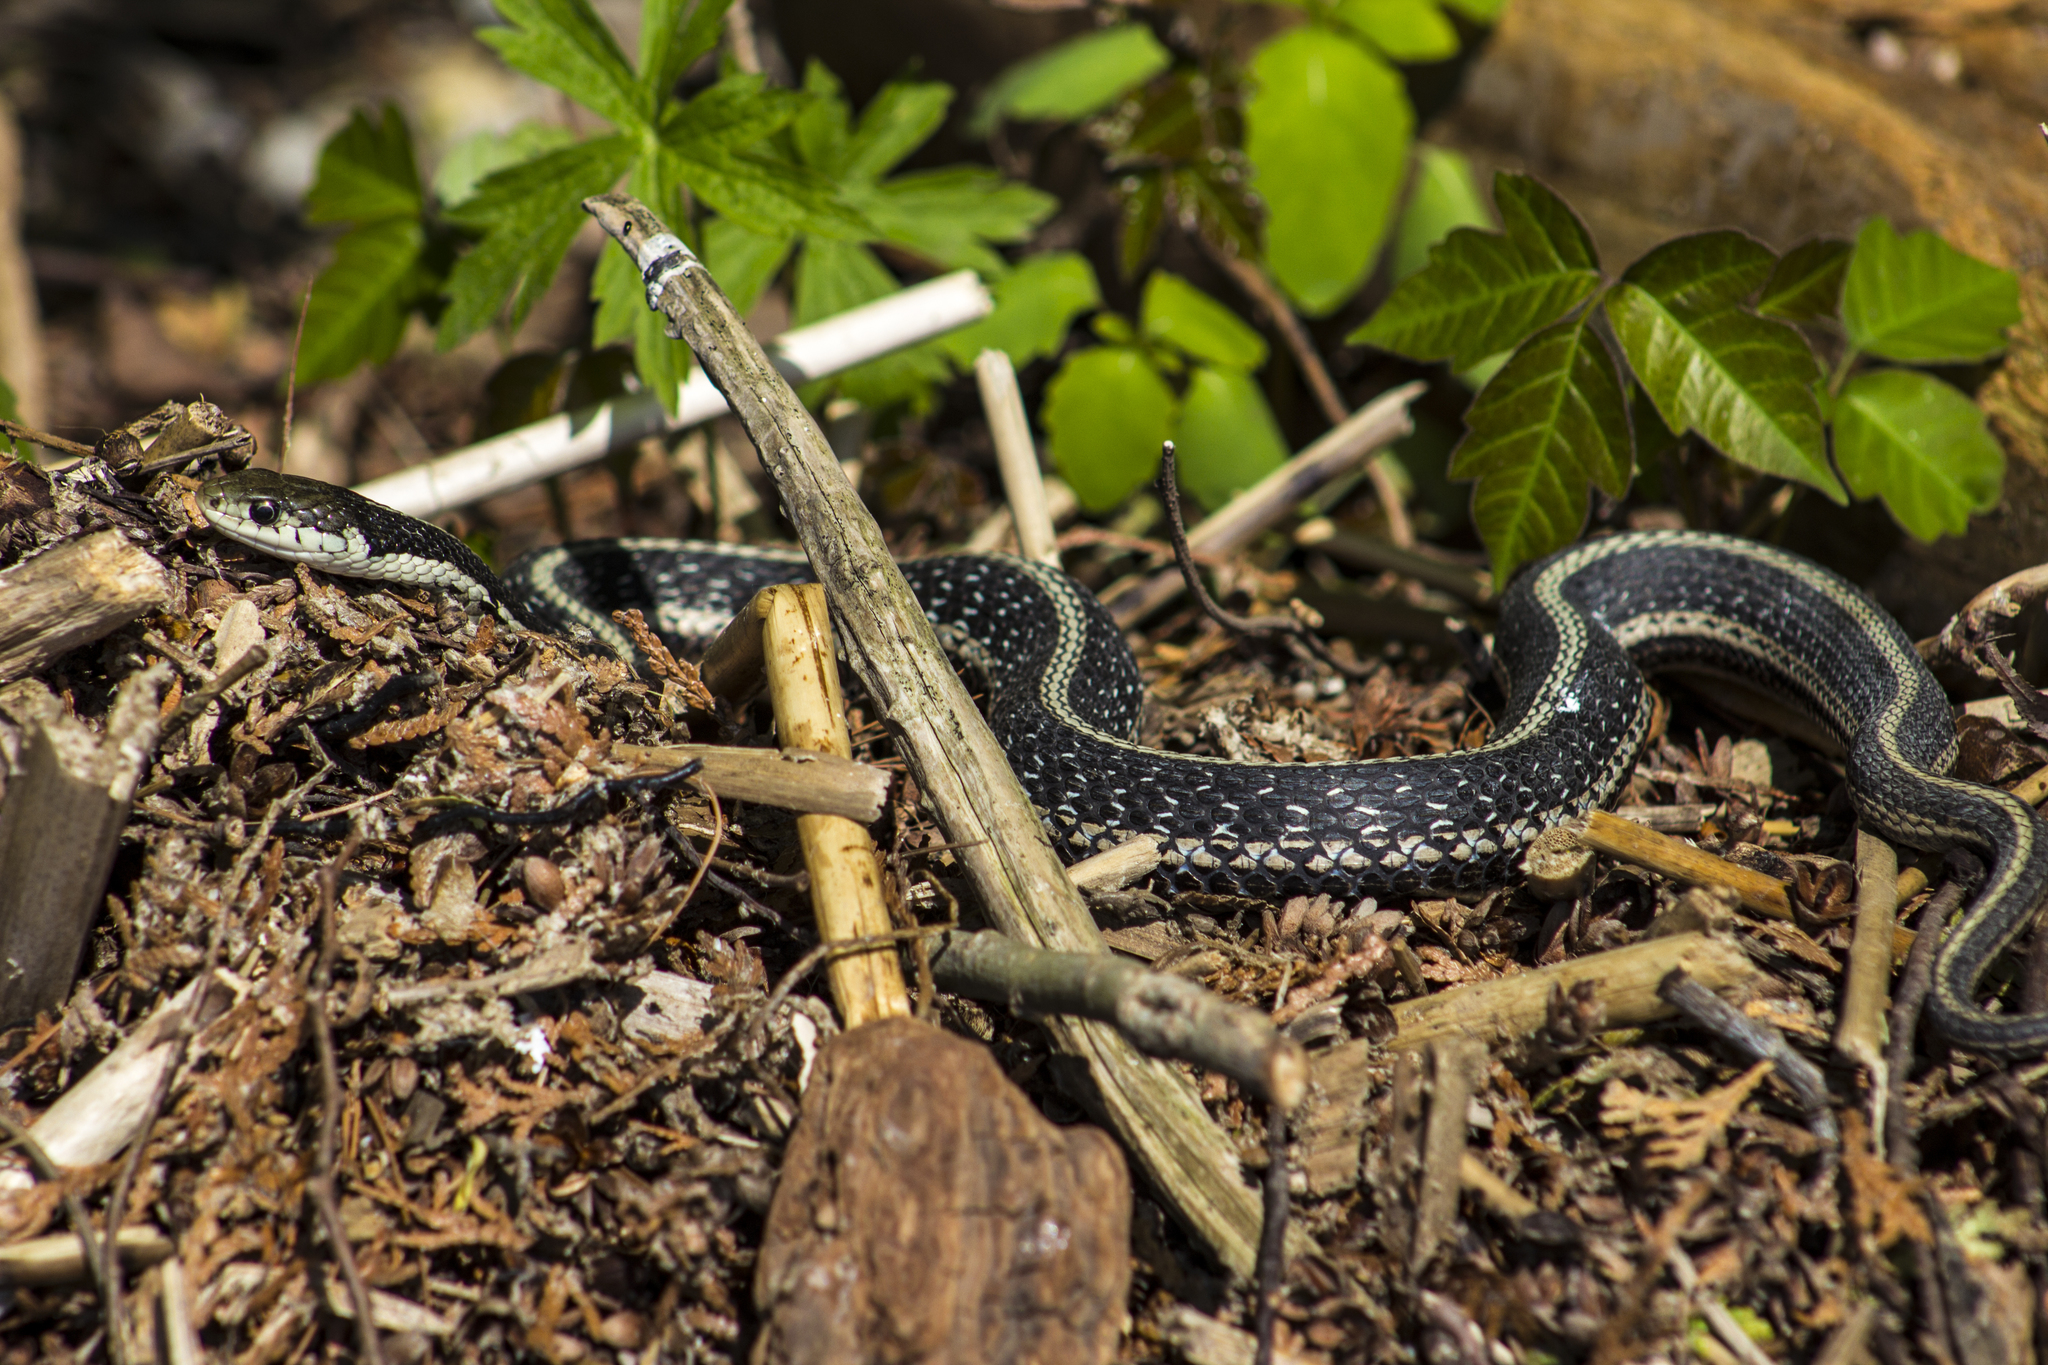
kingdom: Animalia
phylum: Chordata
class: Squamata
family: Colubridae
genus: Thamnophis
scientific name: Thamnophis sirtalis
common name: Common garter snake
